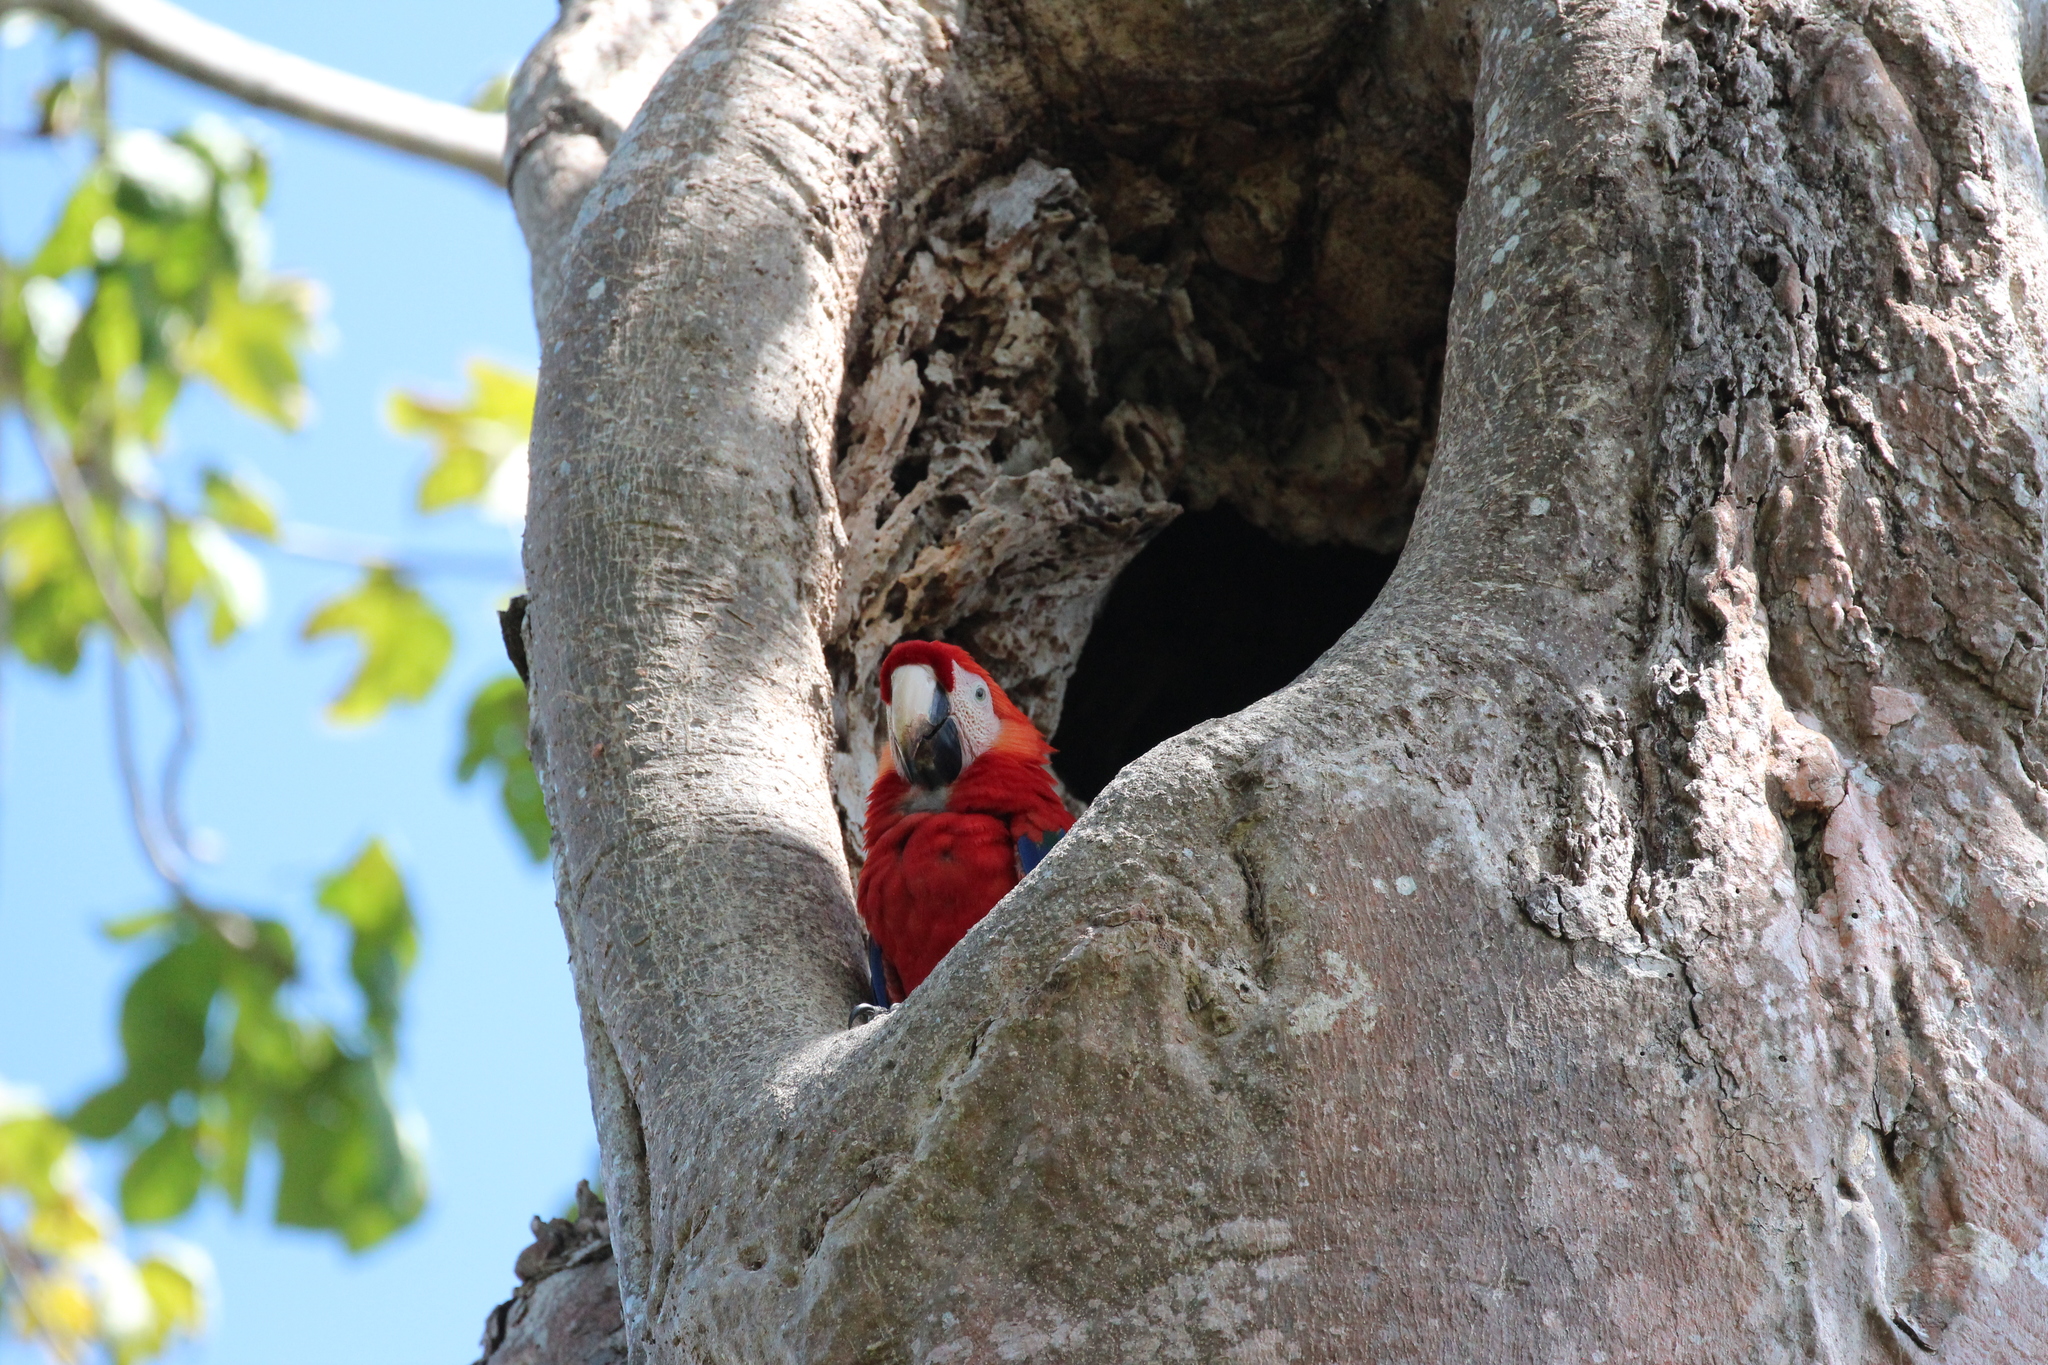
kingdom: Animalia
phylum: Chordata
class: Aves
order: Psittaciformes
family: Psittacidae
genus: Ara
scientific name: Ara macao
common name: Scarlet macaw
